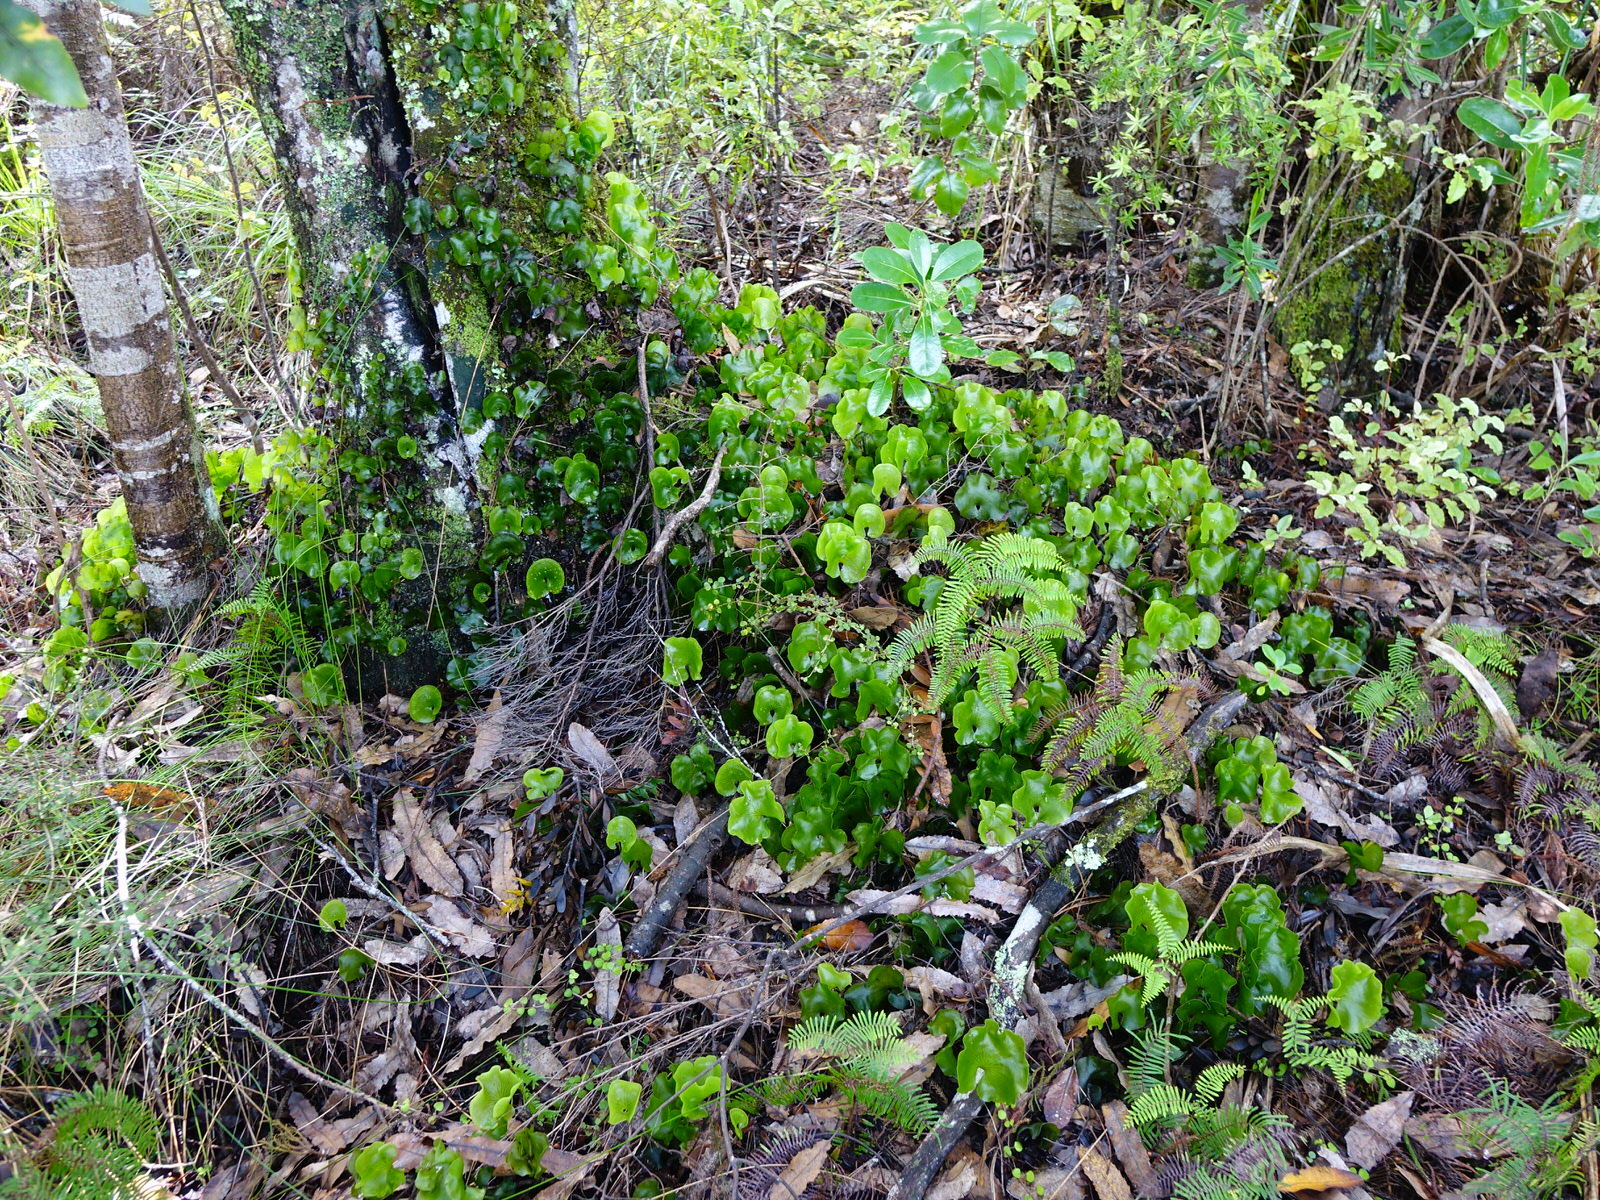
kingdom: Plantae
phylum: Tracheophyta
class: Polypodiopsida
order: Hymenophyllales
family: Hymenophyllaceae
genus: Hymenophyllum
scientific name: Hymenophyllum nephrophyllum
